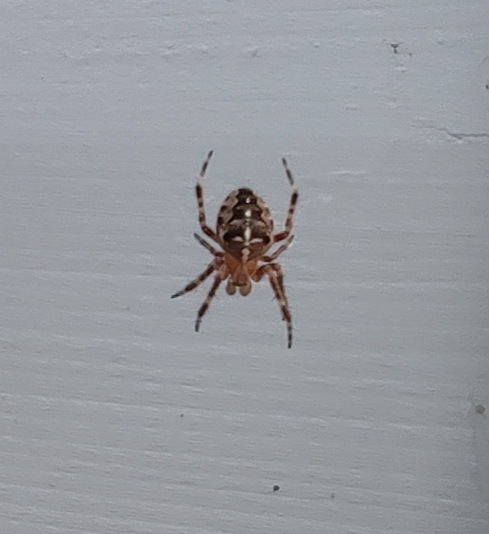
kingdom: Animalia
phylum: Arthropoda
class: Arachnida
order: Araneae
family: Araneidae
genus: Araneus
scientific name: Araneus diadematus
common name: Cross orbweaver
